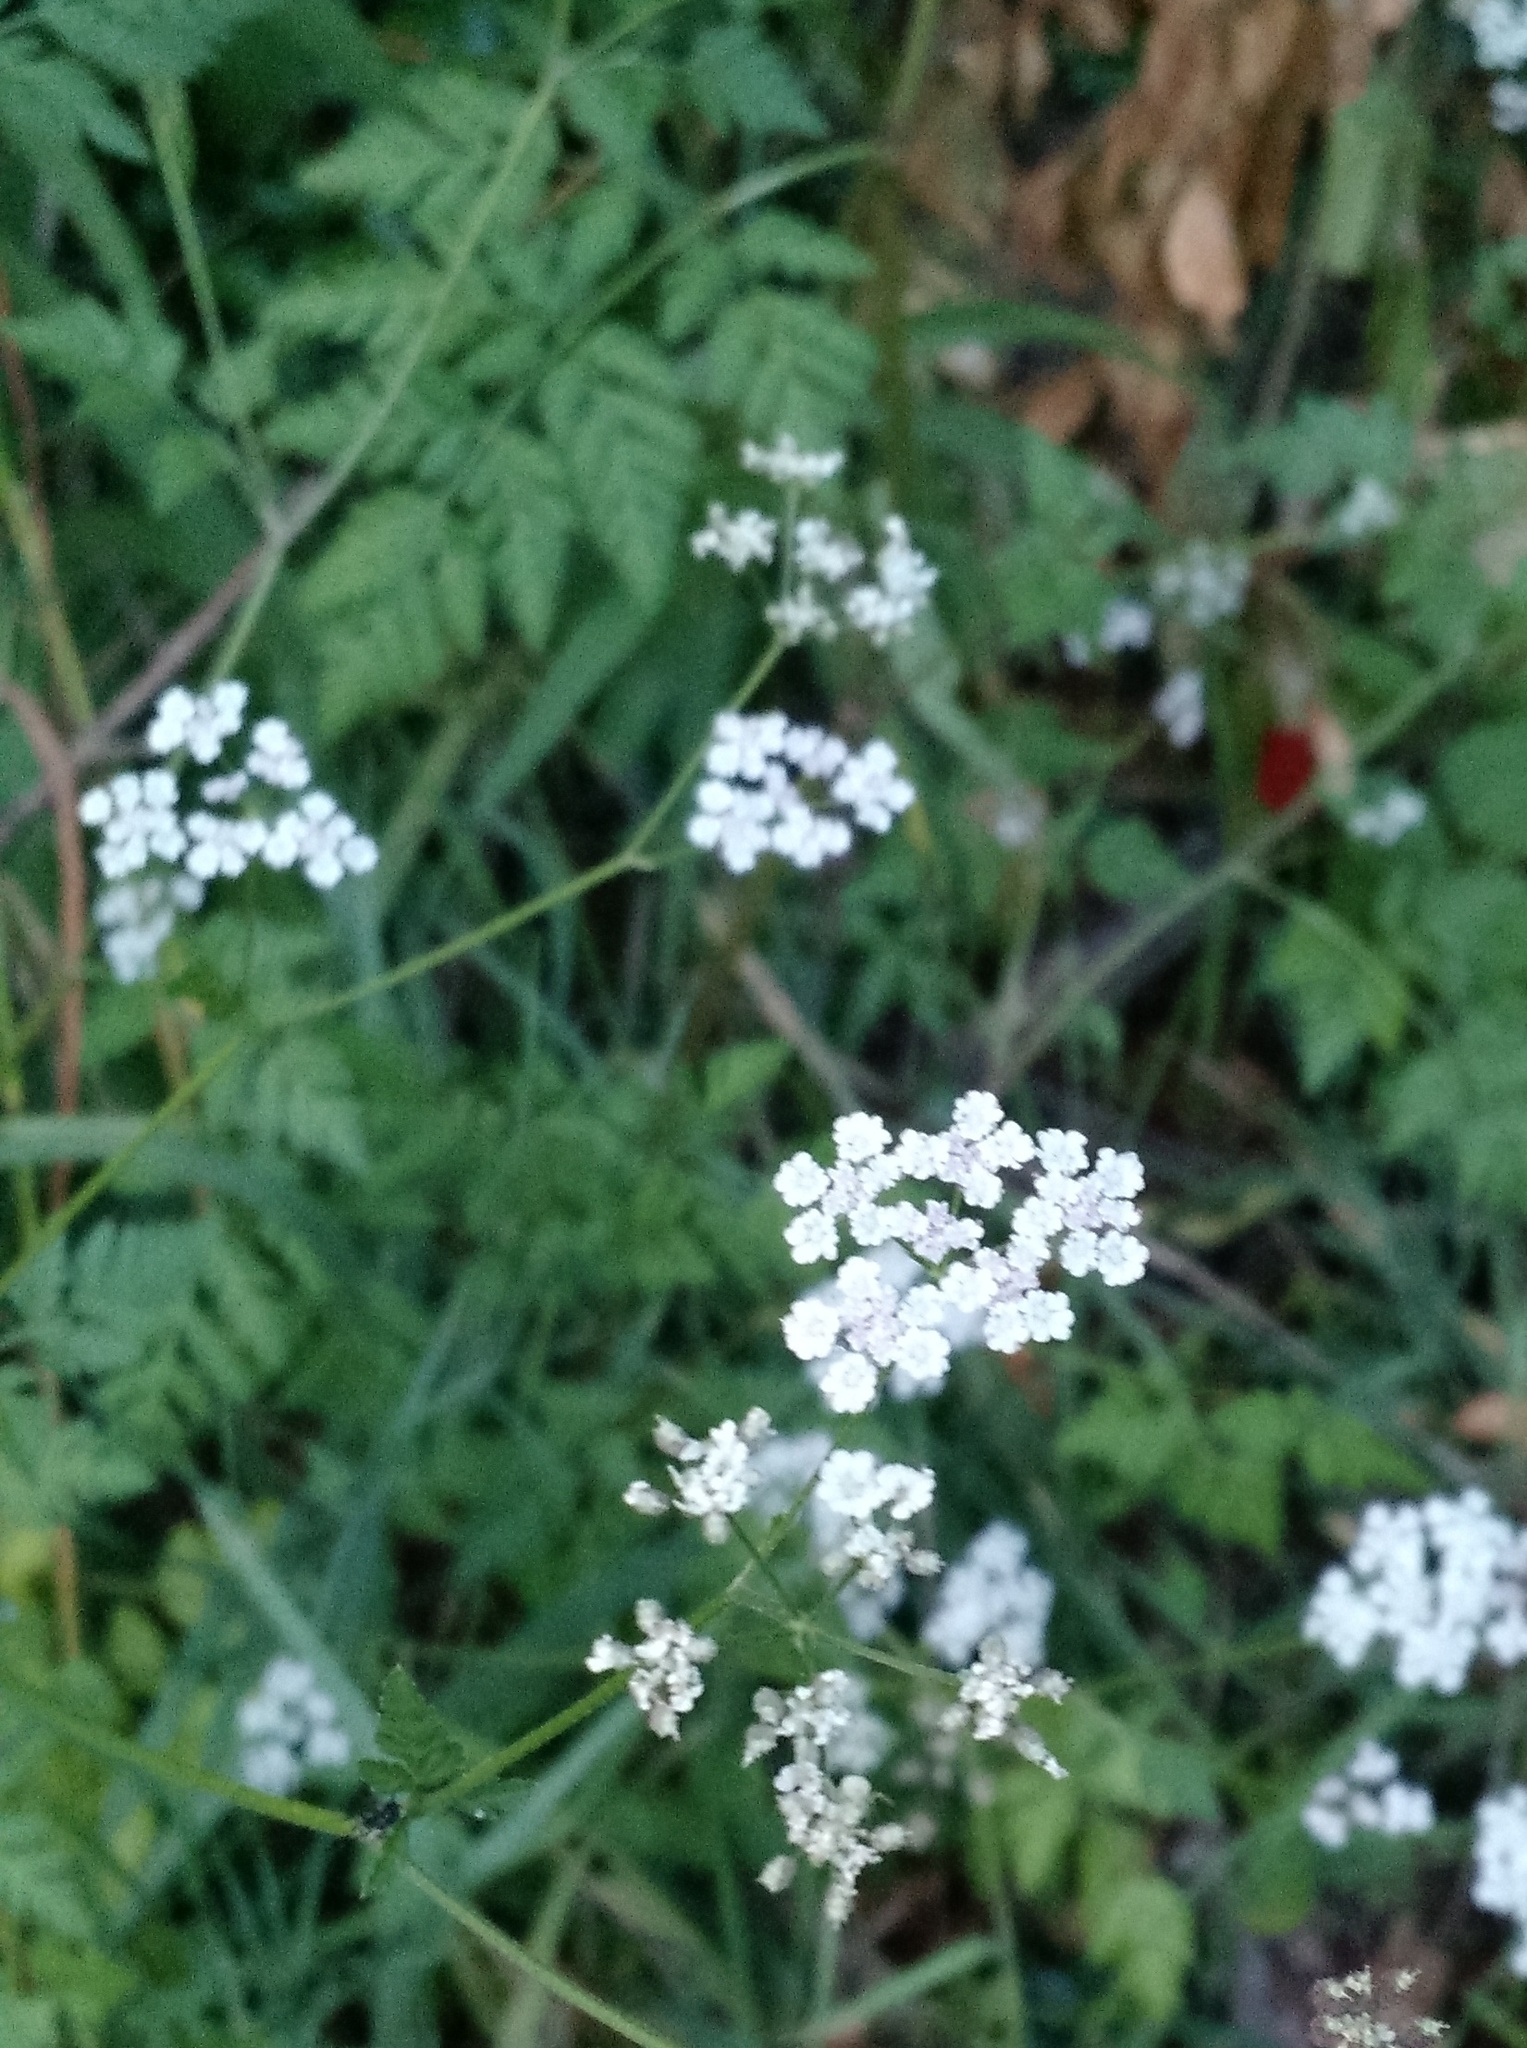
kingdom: Plantae
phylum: Tracheophyta
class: Magnoliopsida
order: Apiales
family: Apiaceae
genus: Torilis
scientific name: Torilis arvensis
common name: Spreading hedge-parsley
